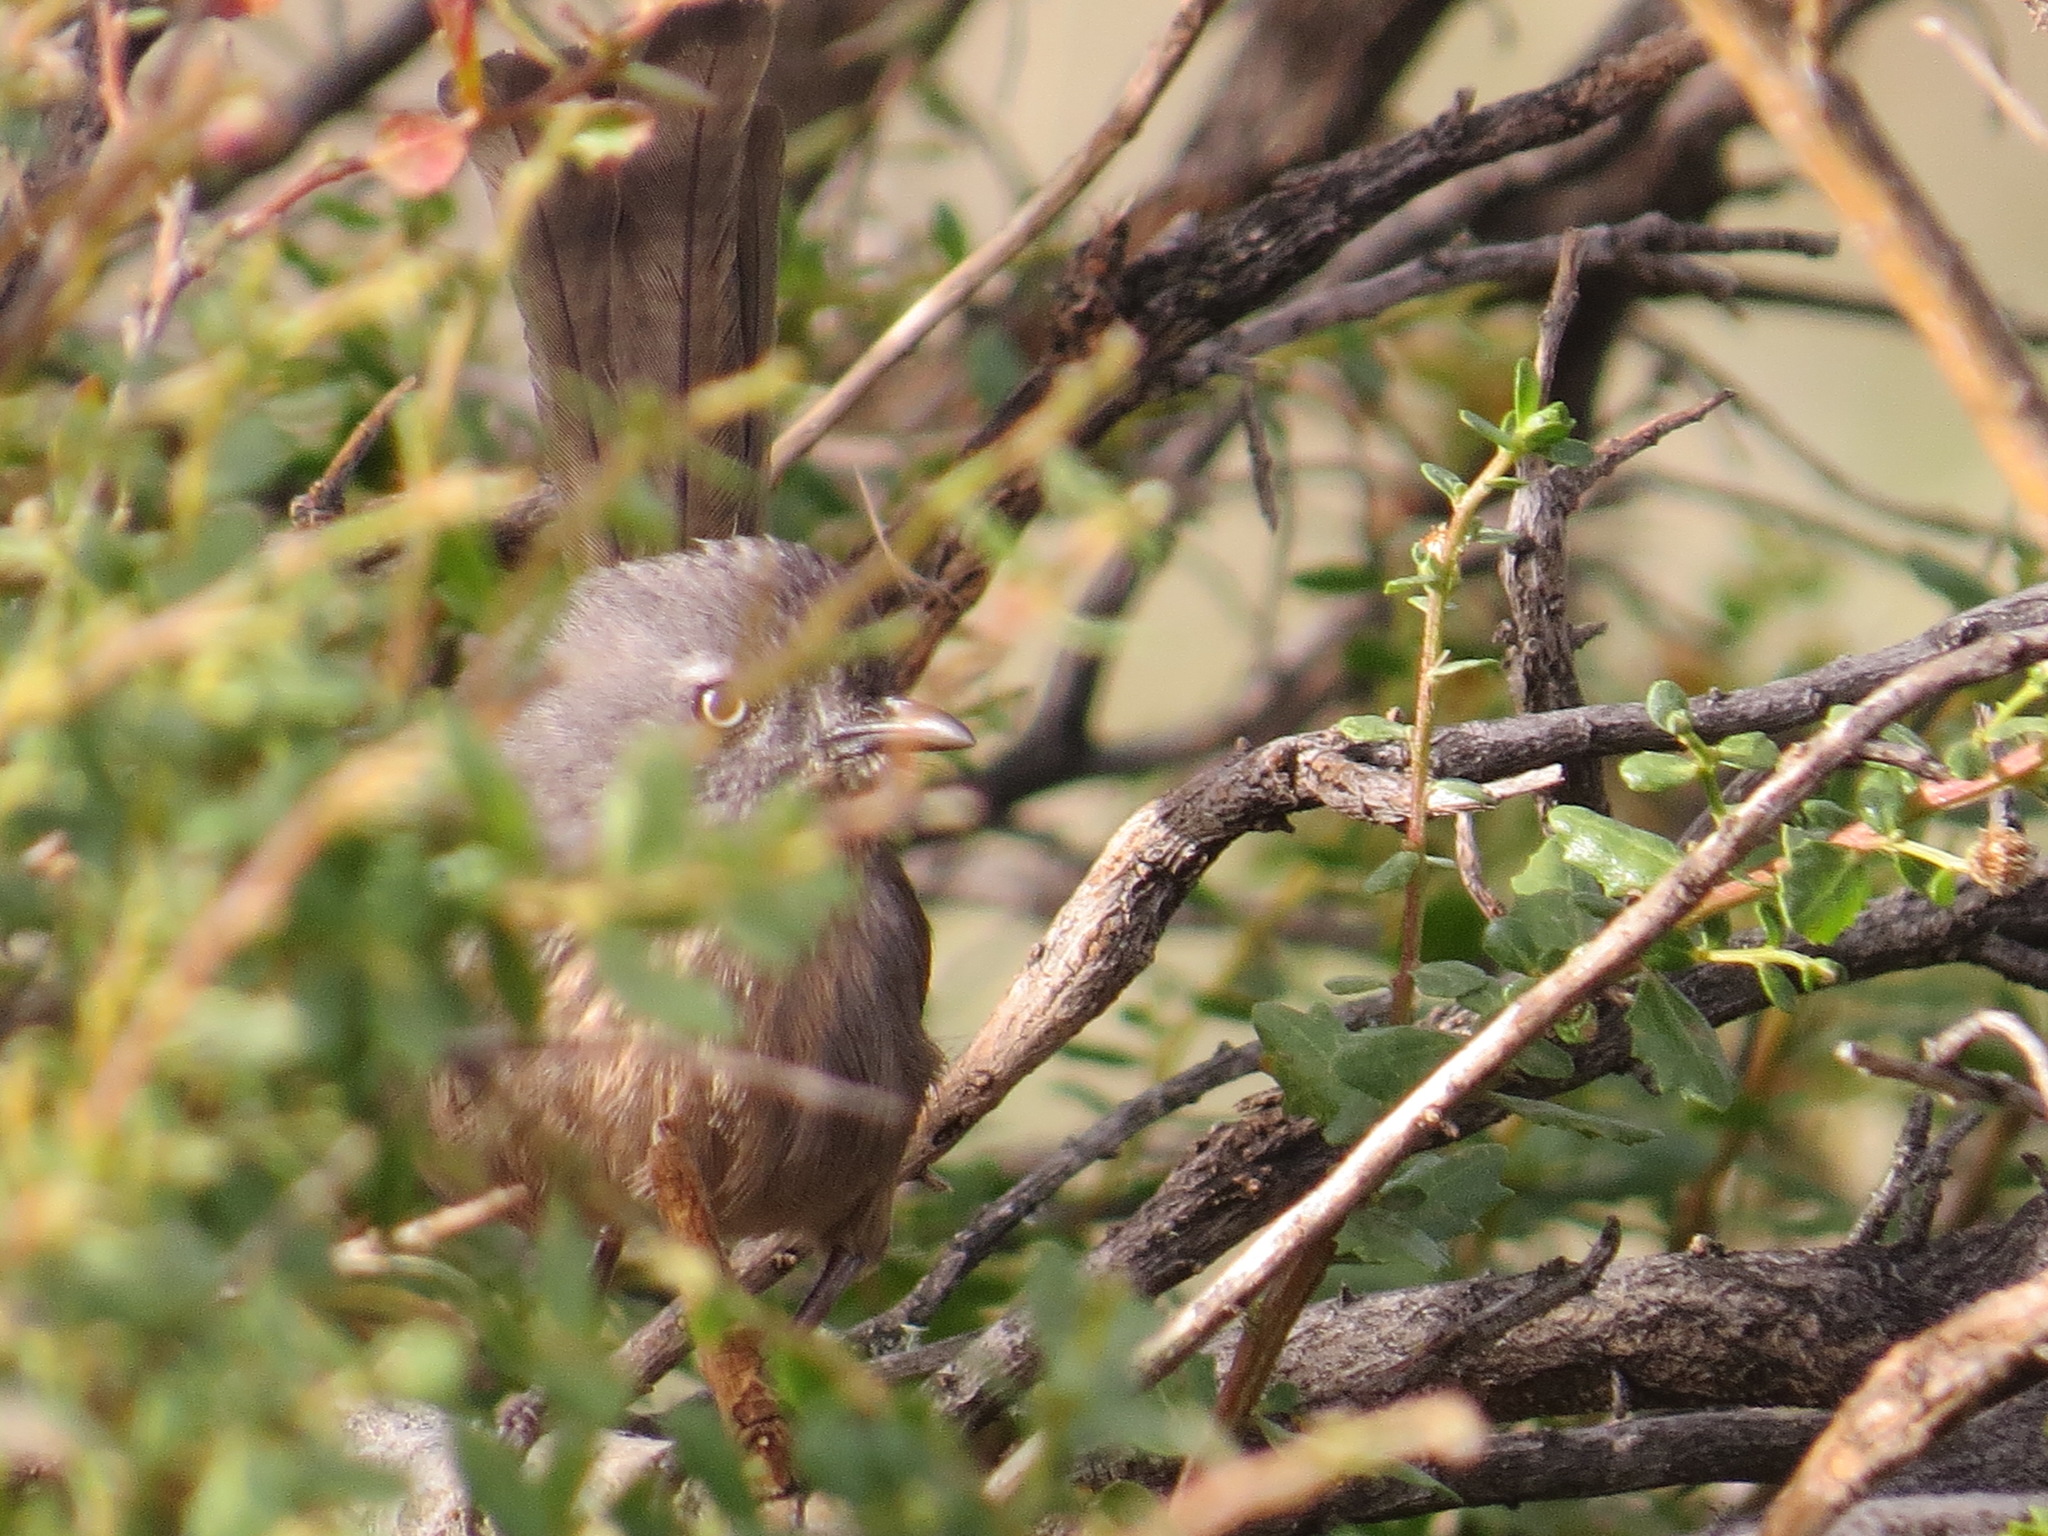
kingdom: Animalia
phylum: Chordata
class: Aves
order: Passeriformes
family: Sylviidae
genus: Chamaea
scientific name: Chamaea fasciata
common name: Wrentit
